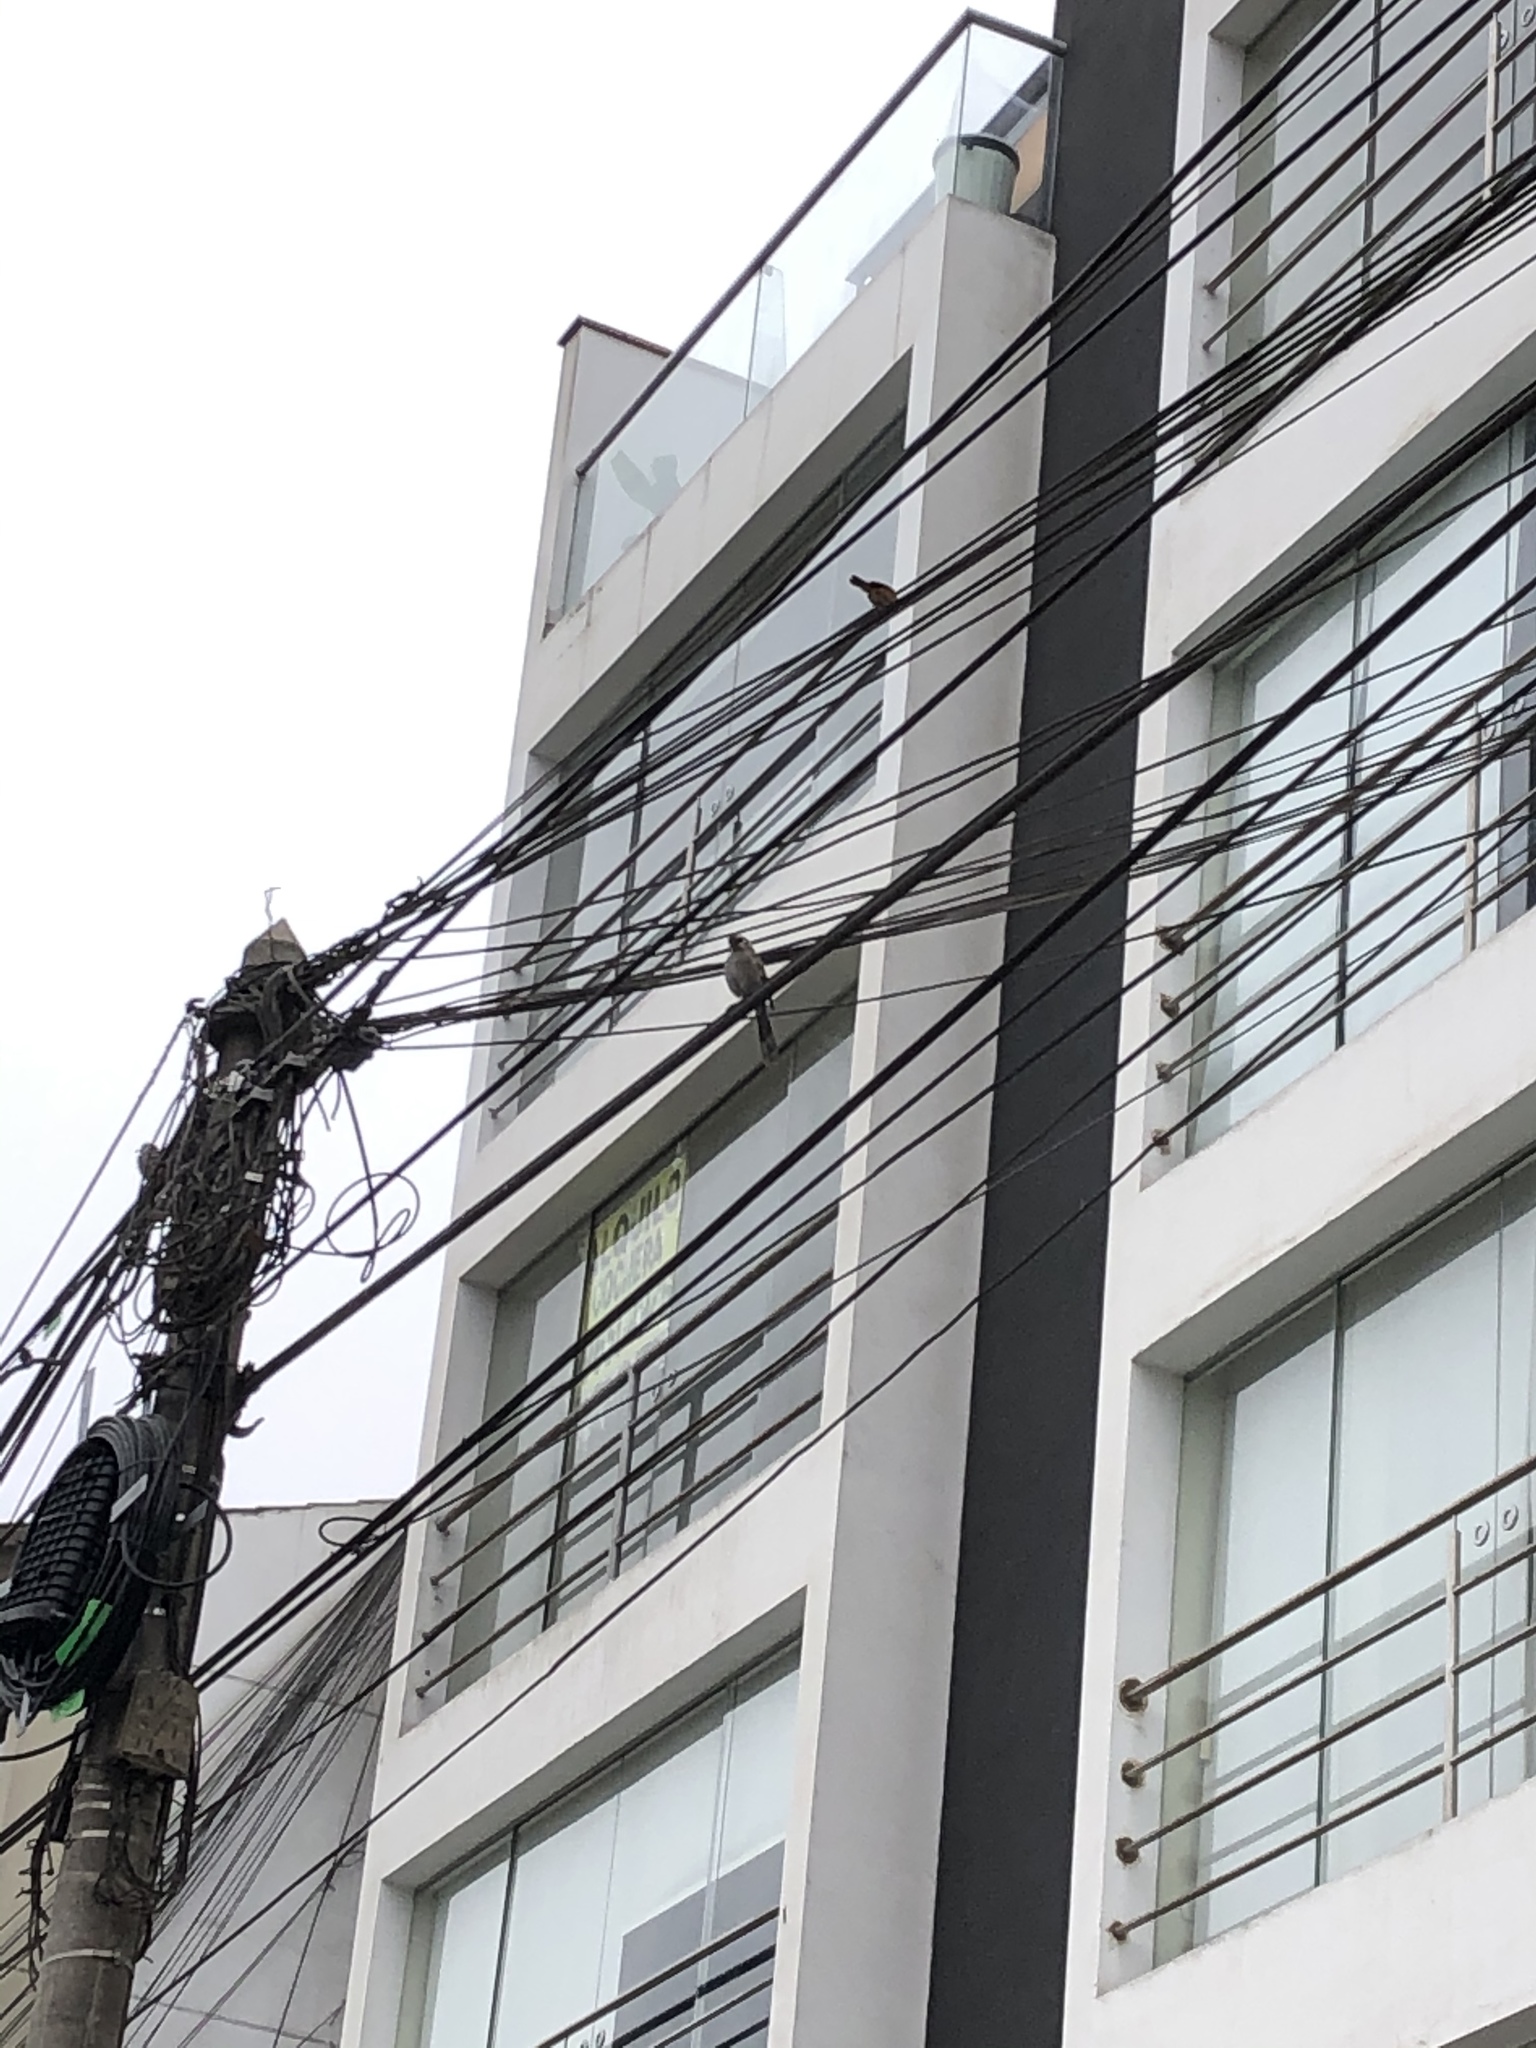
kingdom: Animalia
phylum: Chordata
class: Aves
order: Passeriformes
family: Mimidae
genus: Mimus
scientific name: Mimus longicaudatus
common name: Long-tailed mockingbird
